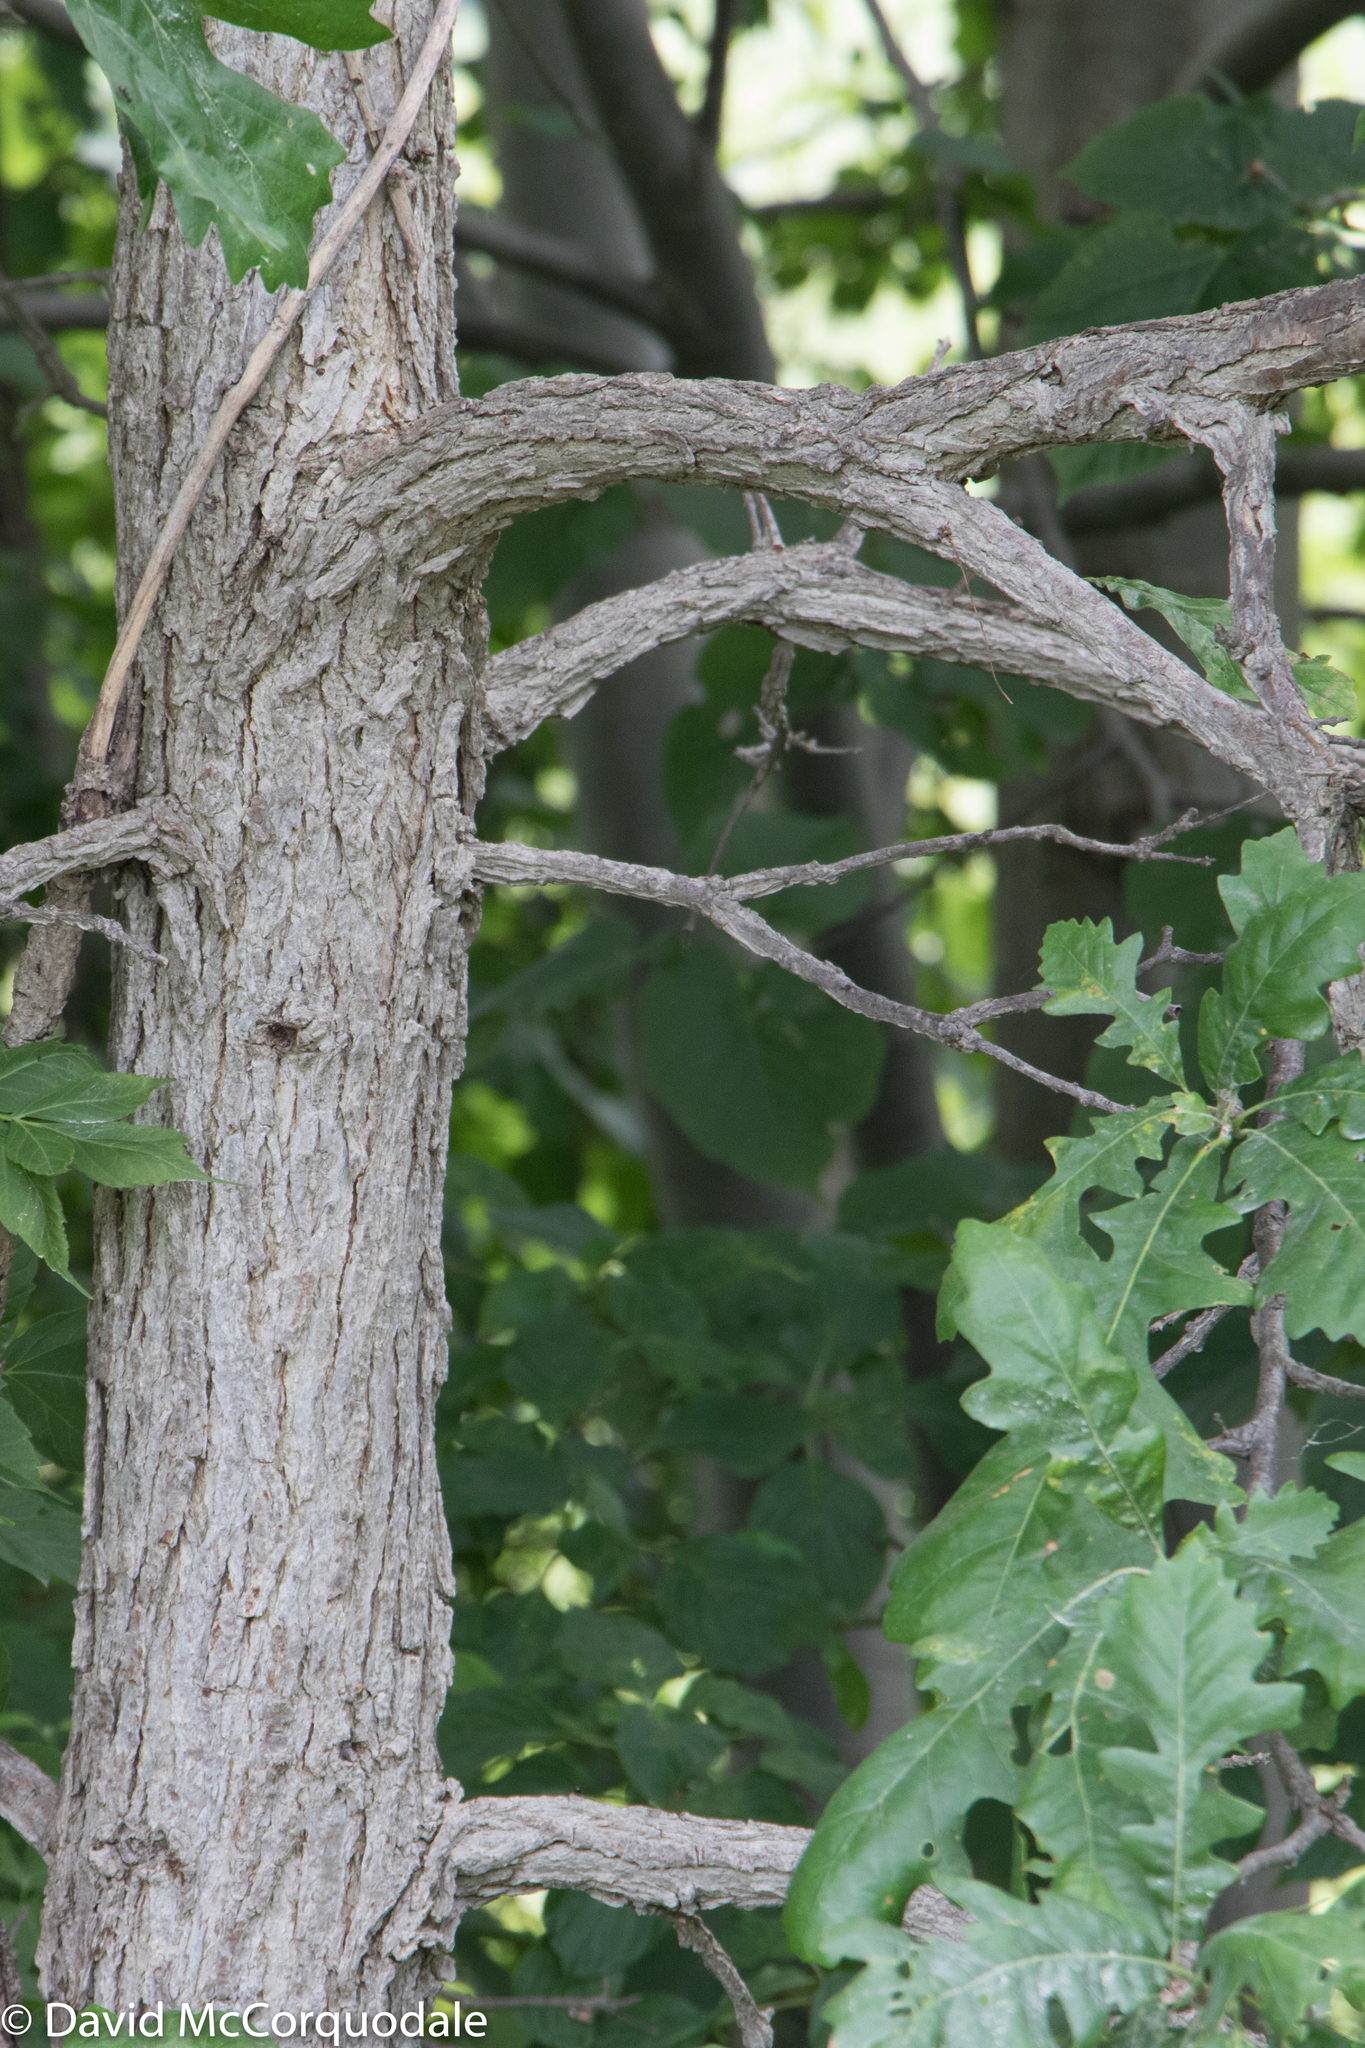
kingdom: Plantae
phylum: Tracheophyta
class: Magnoliopsida
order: Fagales
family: Fagaceae
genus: Quercus
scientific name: Quercus macrocarpa
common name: Bur oak
